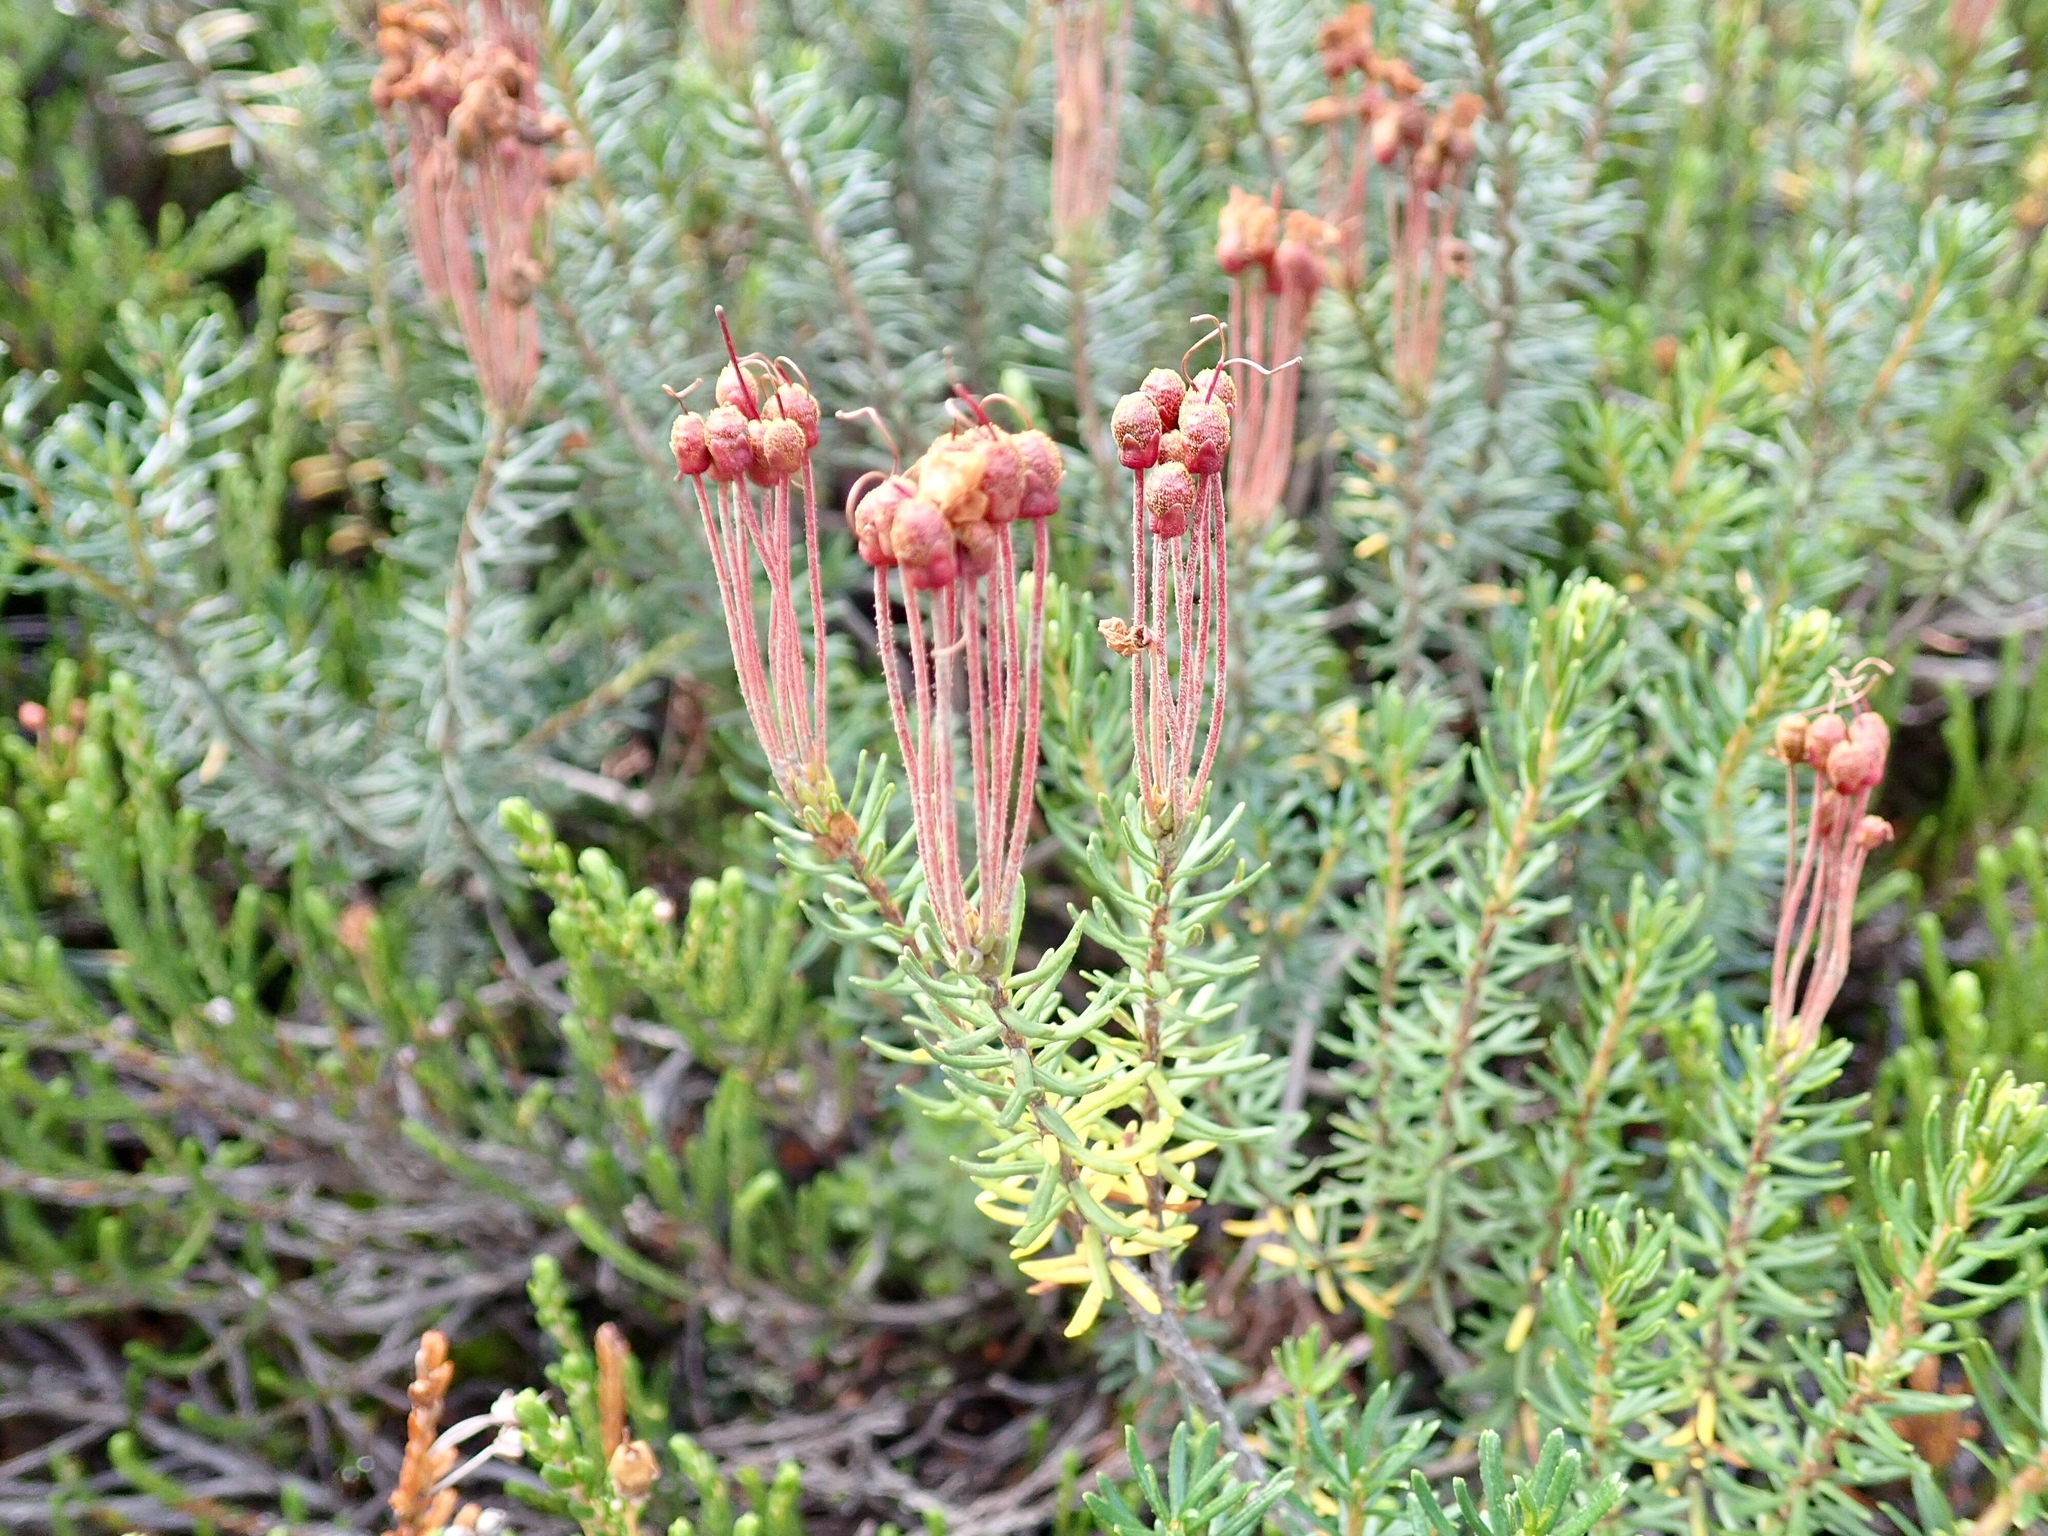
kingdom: Plantae
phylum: Tracheophyta
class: Magnoliopsida
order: Ericales
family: Ericaceae
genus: Phyllodoce
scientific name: Phyllodoce empetriformis
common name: Pink mountain heather
